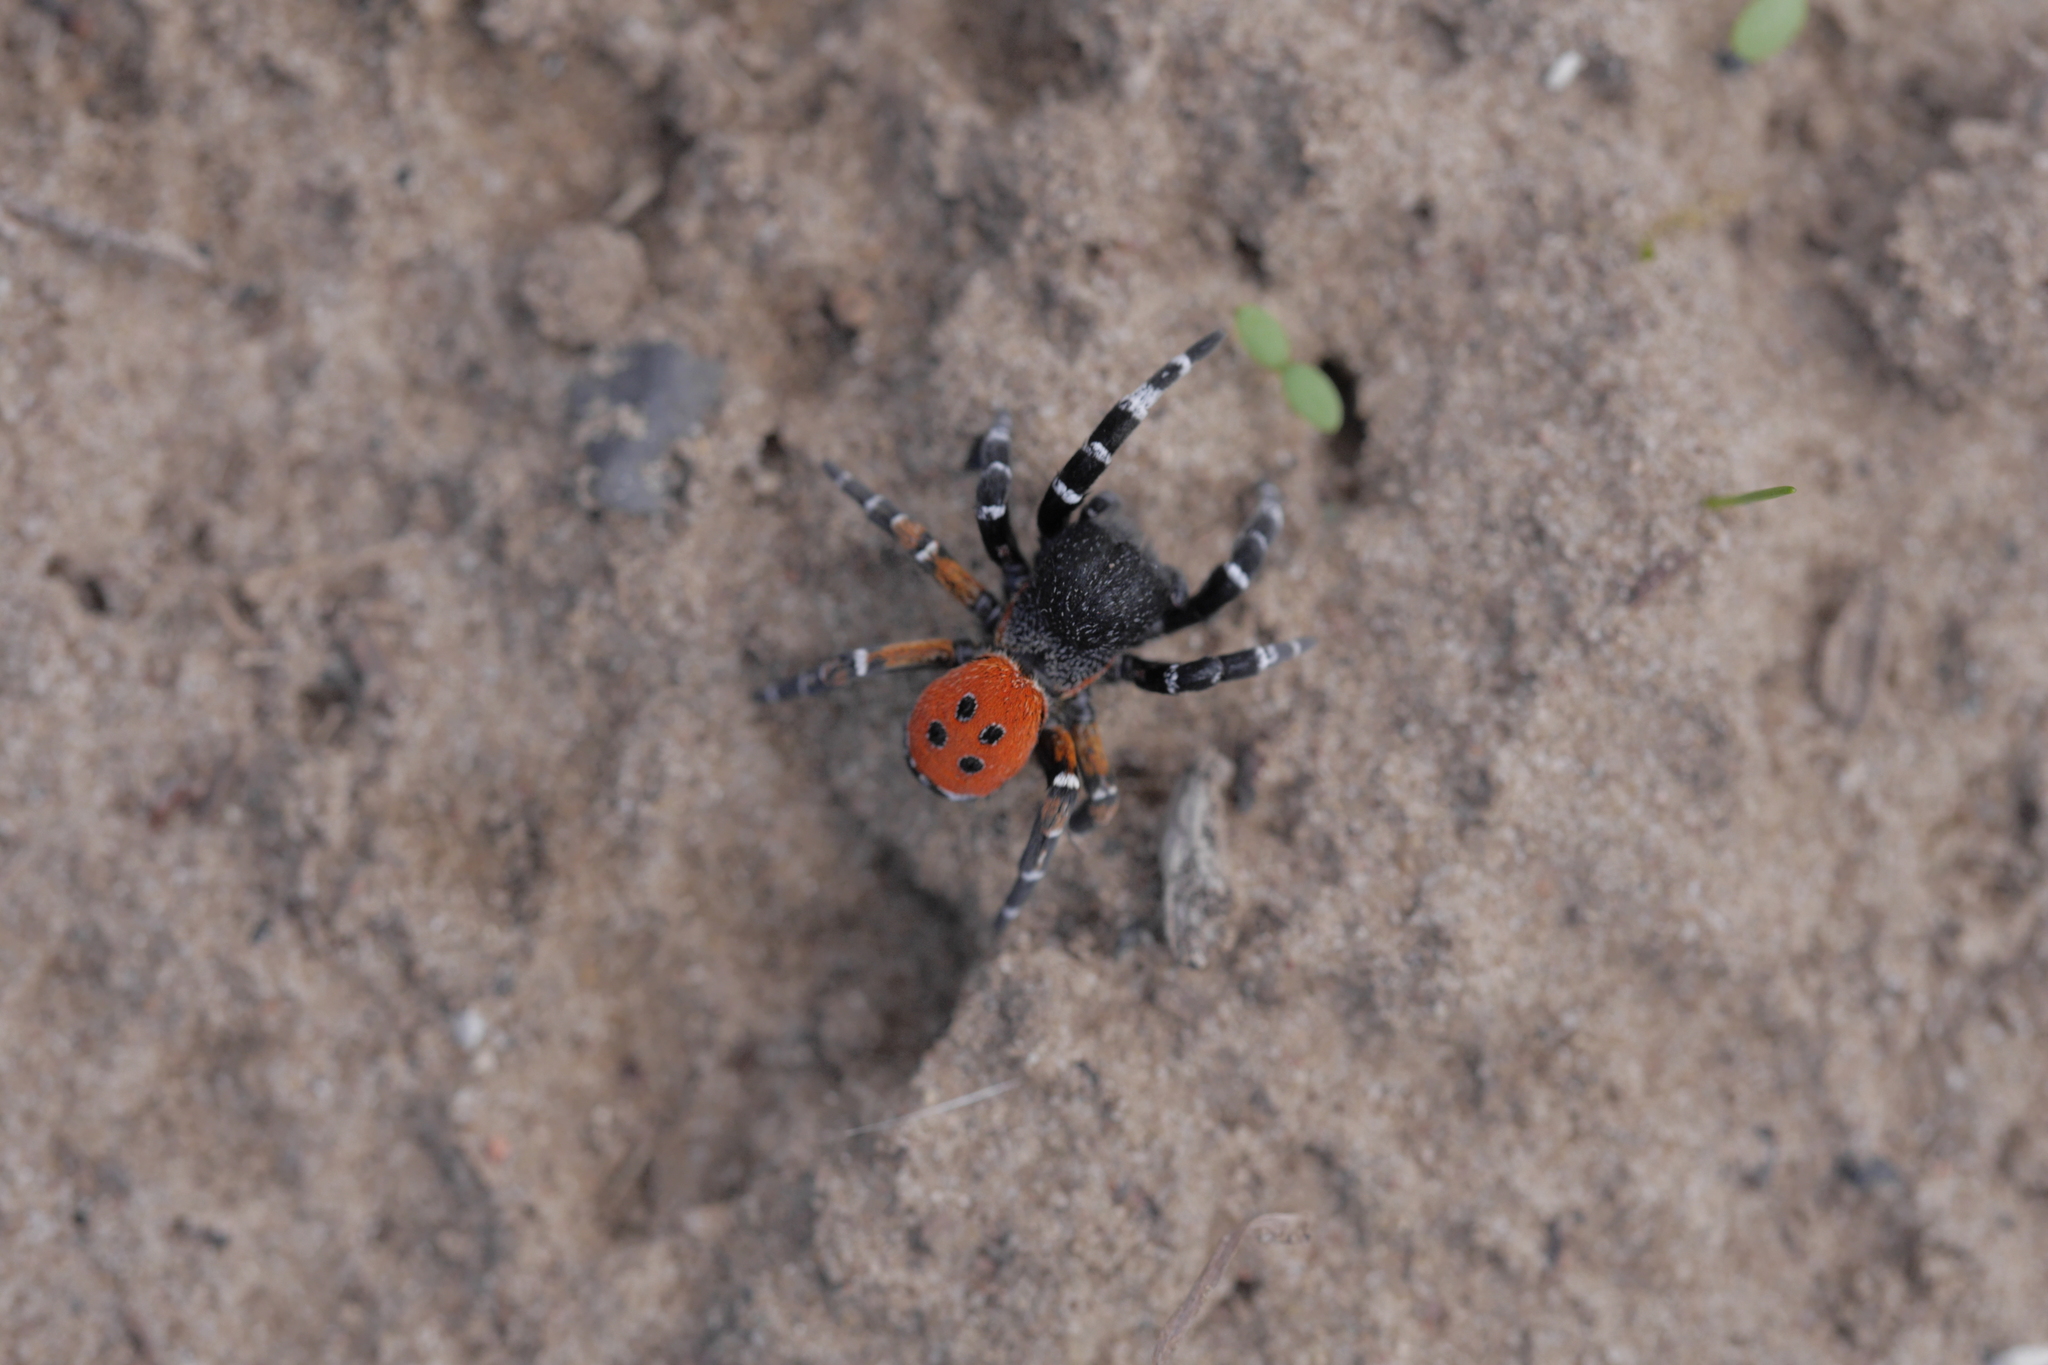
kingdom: Animalia
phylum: Arthropoda
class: Arachnida
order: Araneae
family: Eresidae
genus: Eresus
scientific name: Eresus kollari
